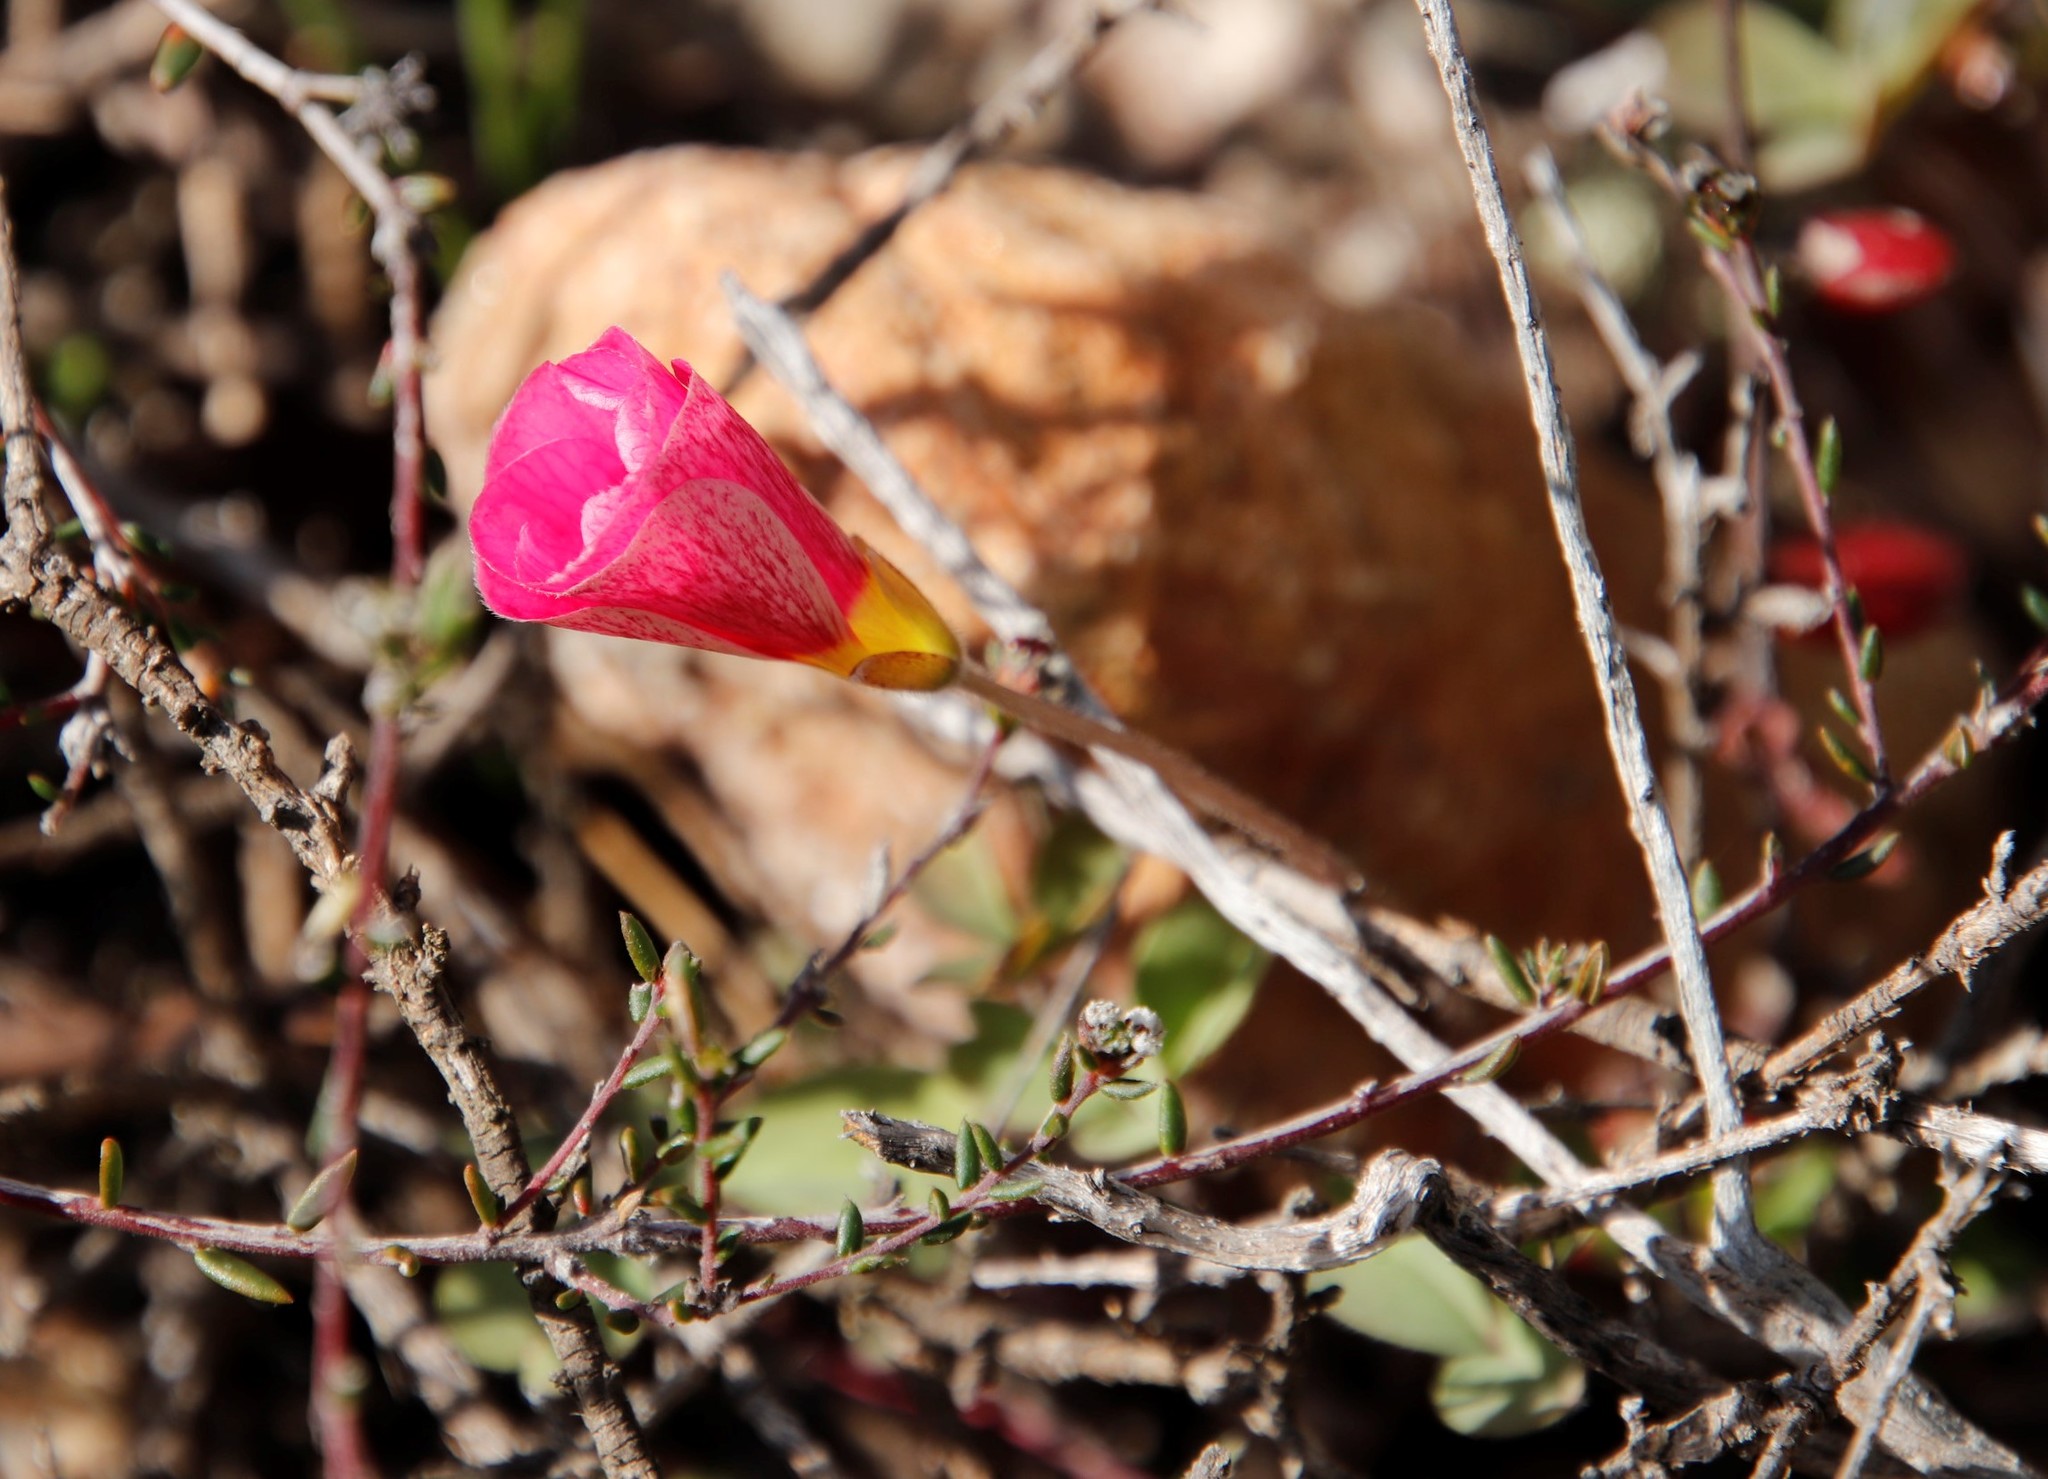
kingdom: Plantae
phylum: Tracheophyta
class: Magnoliopsida
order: Oxalidales
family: Oxalidaceae
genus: Oxalis
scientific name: Oxalis obtusa
